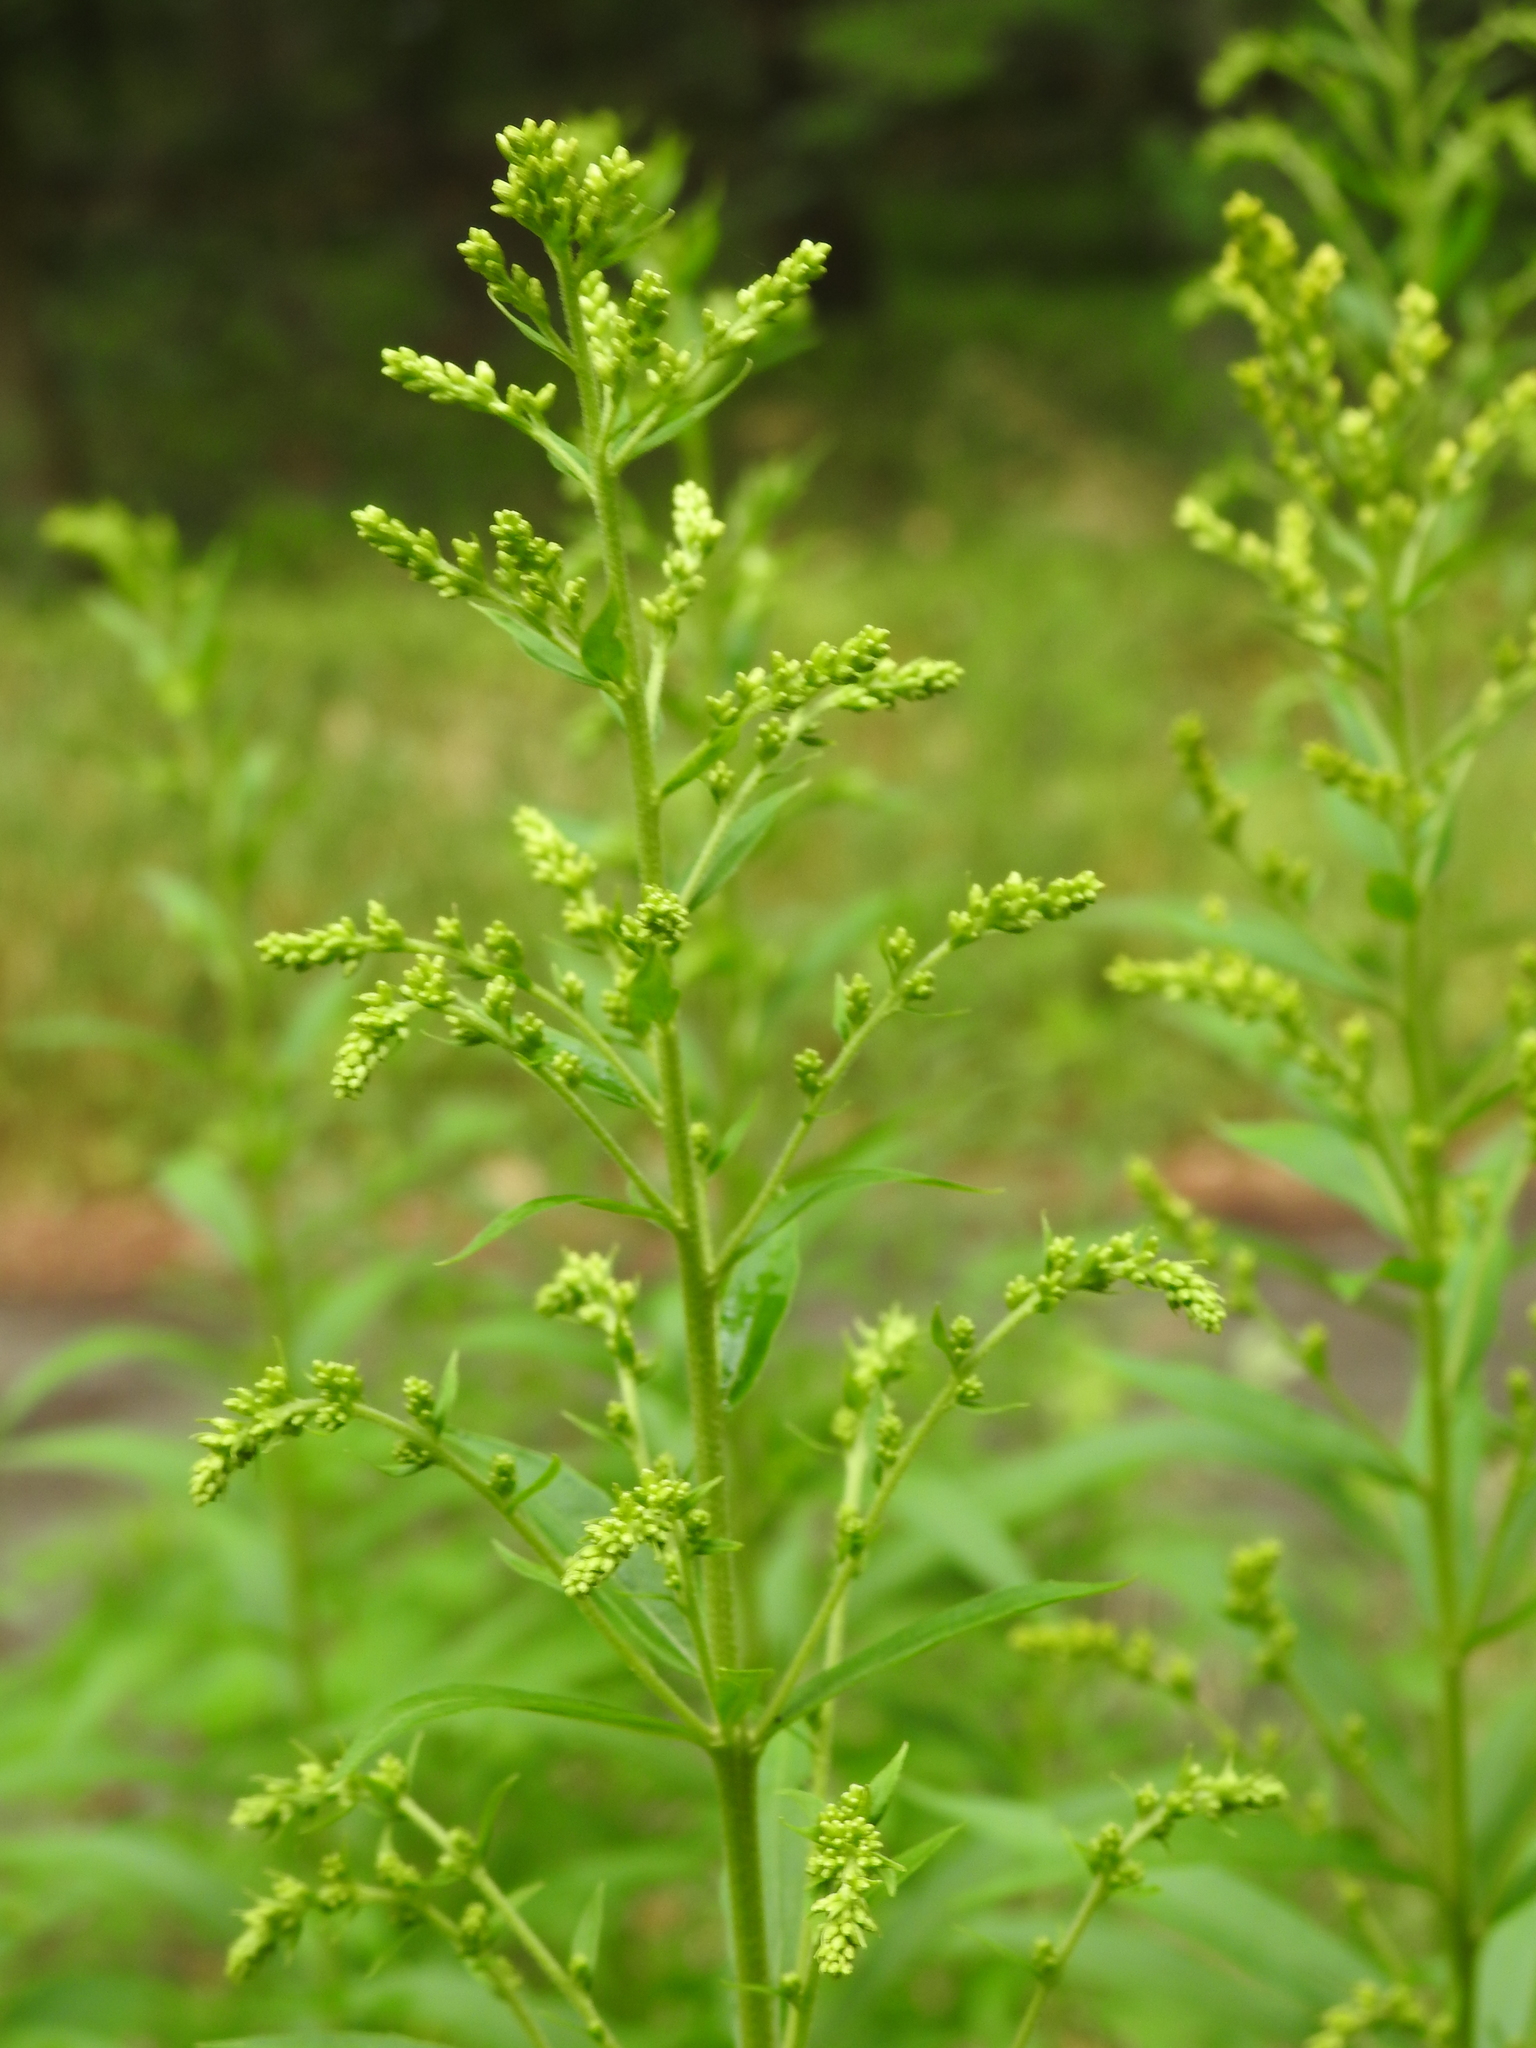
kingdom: Plantae
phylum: Tracheophyta
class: Magnoliopsida
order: Asterales
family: Asteraceae
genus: Solidago
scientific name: Solidago canadensis
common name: Canada goldenrod
